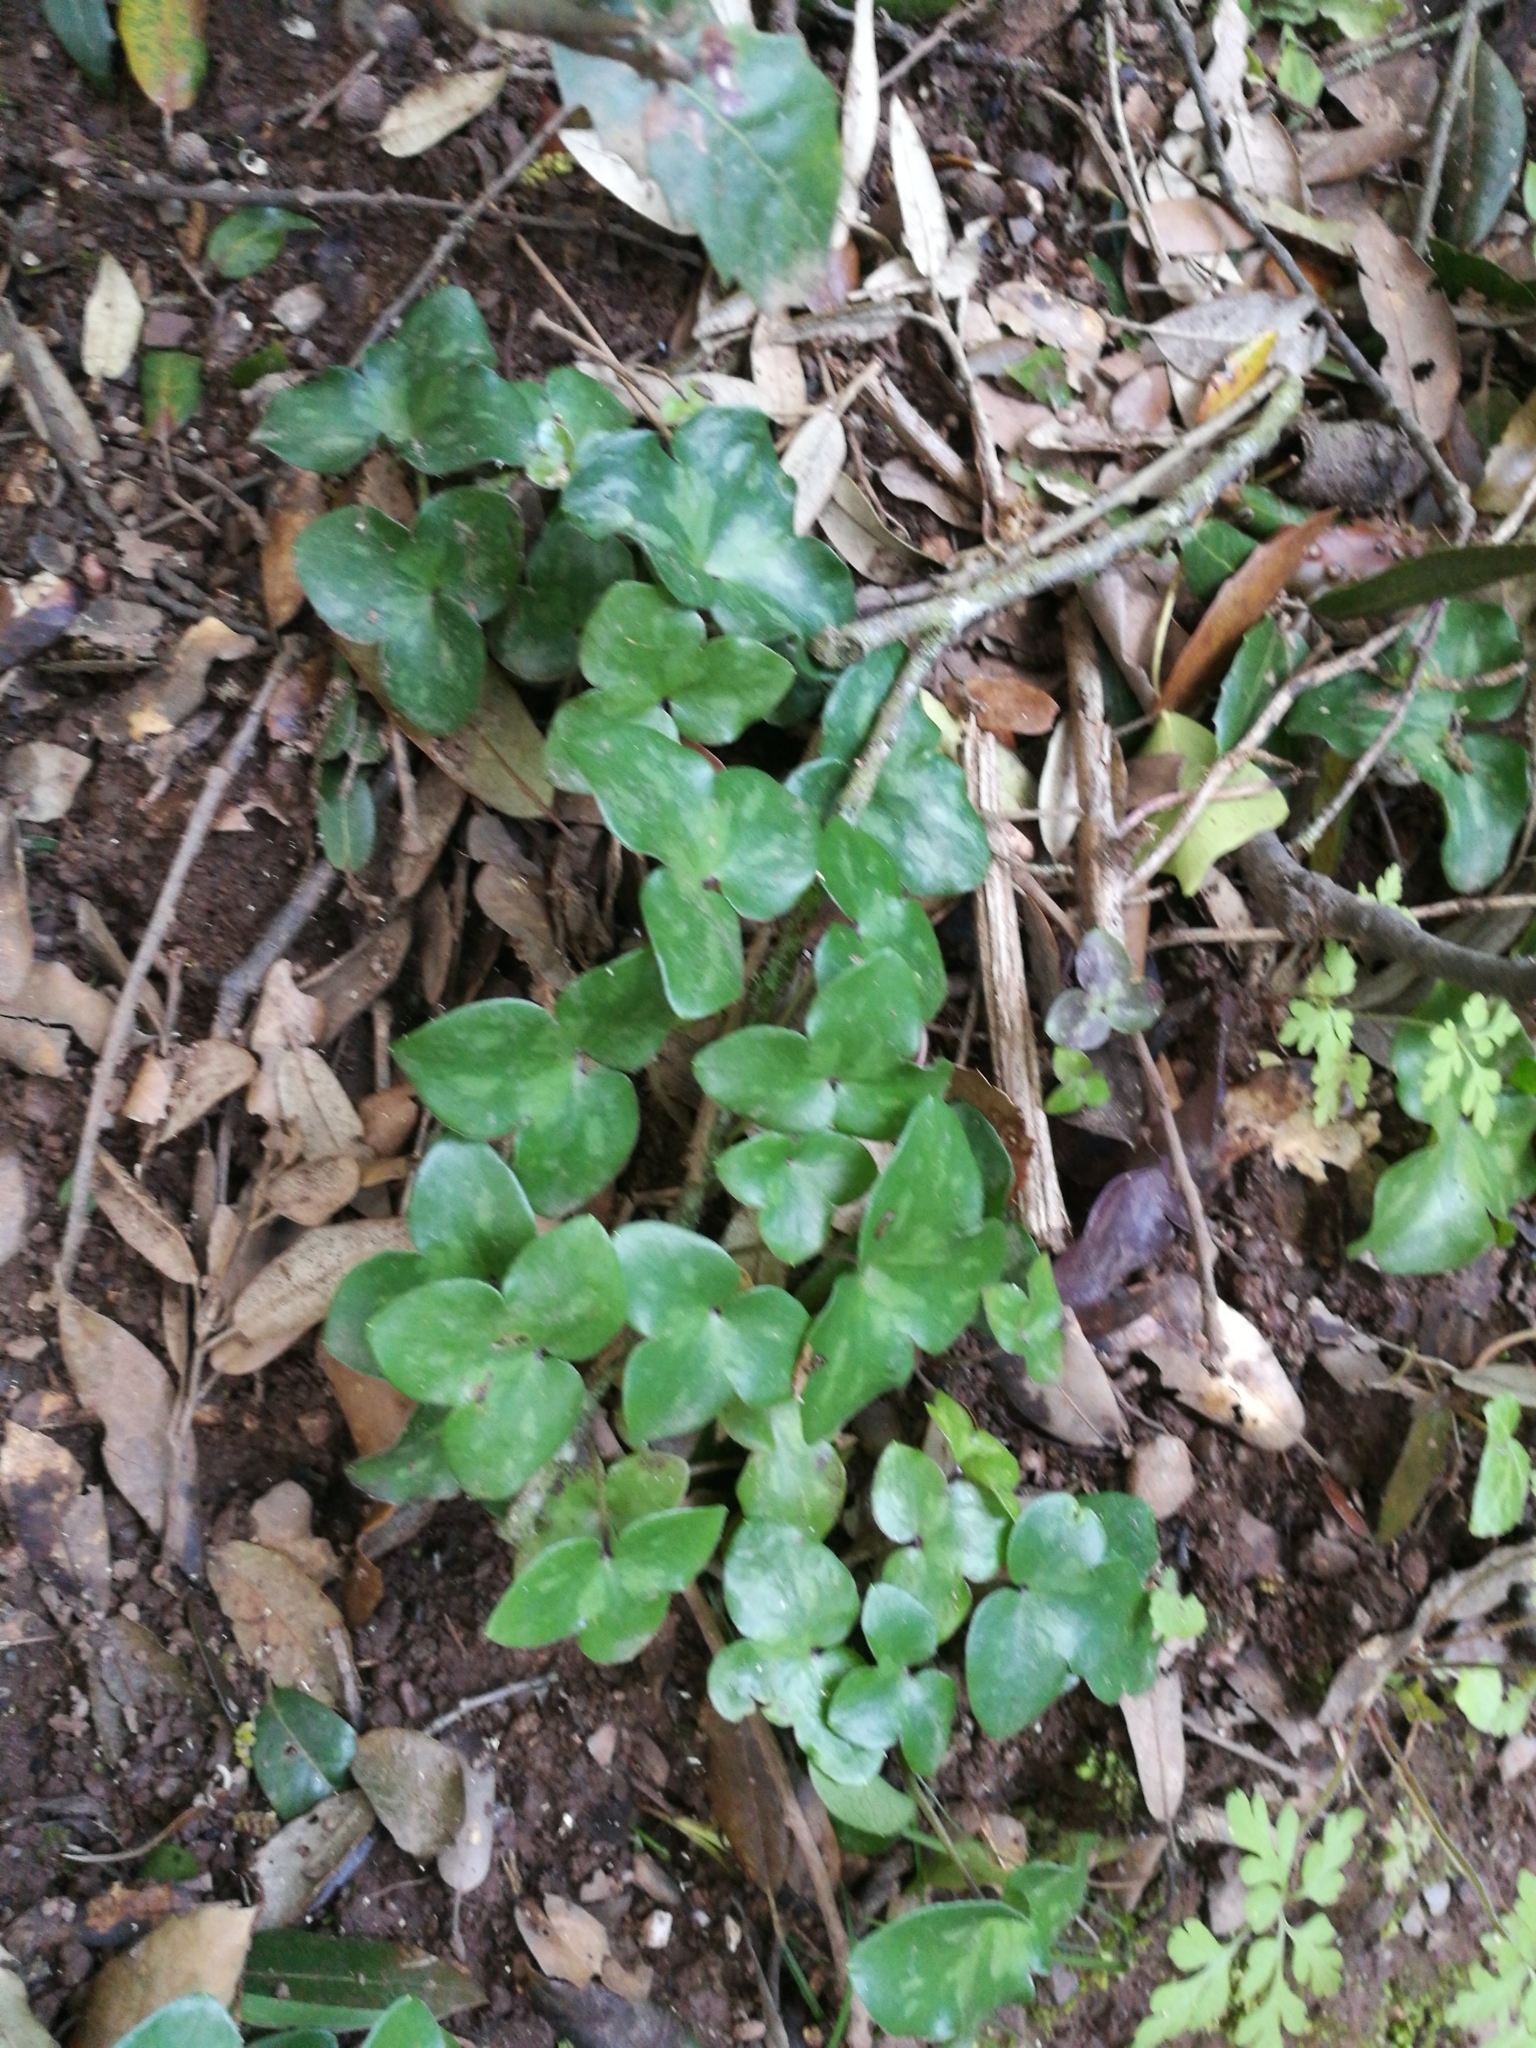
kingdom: Plantae
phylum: Tracheophyta
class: Magnoliopsida
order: Ranunculales
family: Ranunculaceae
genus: Hepatica
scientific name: Hepatica nobilis
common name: Liverleaf
